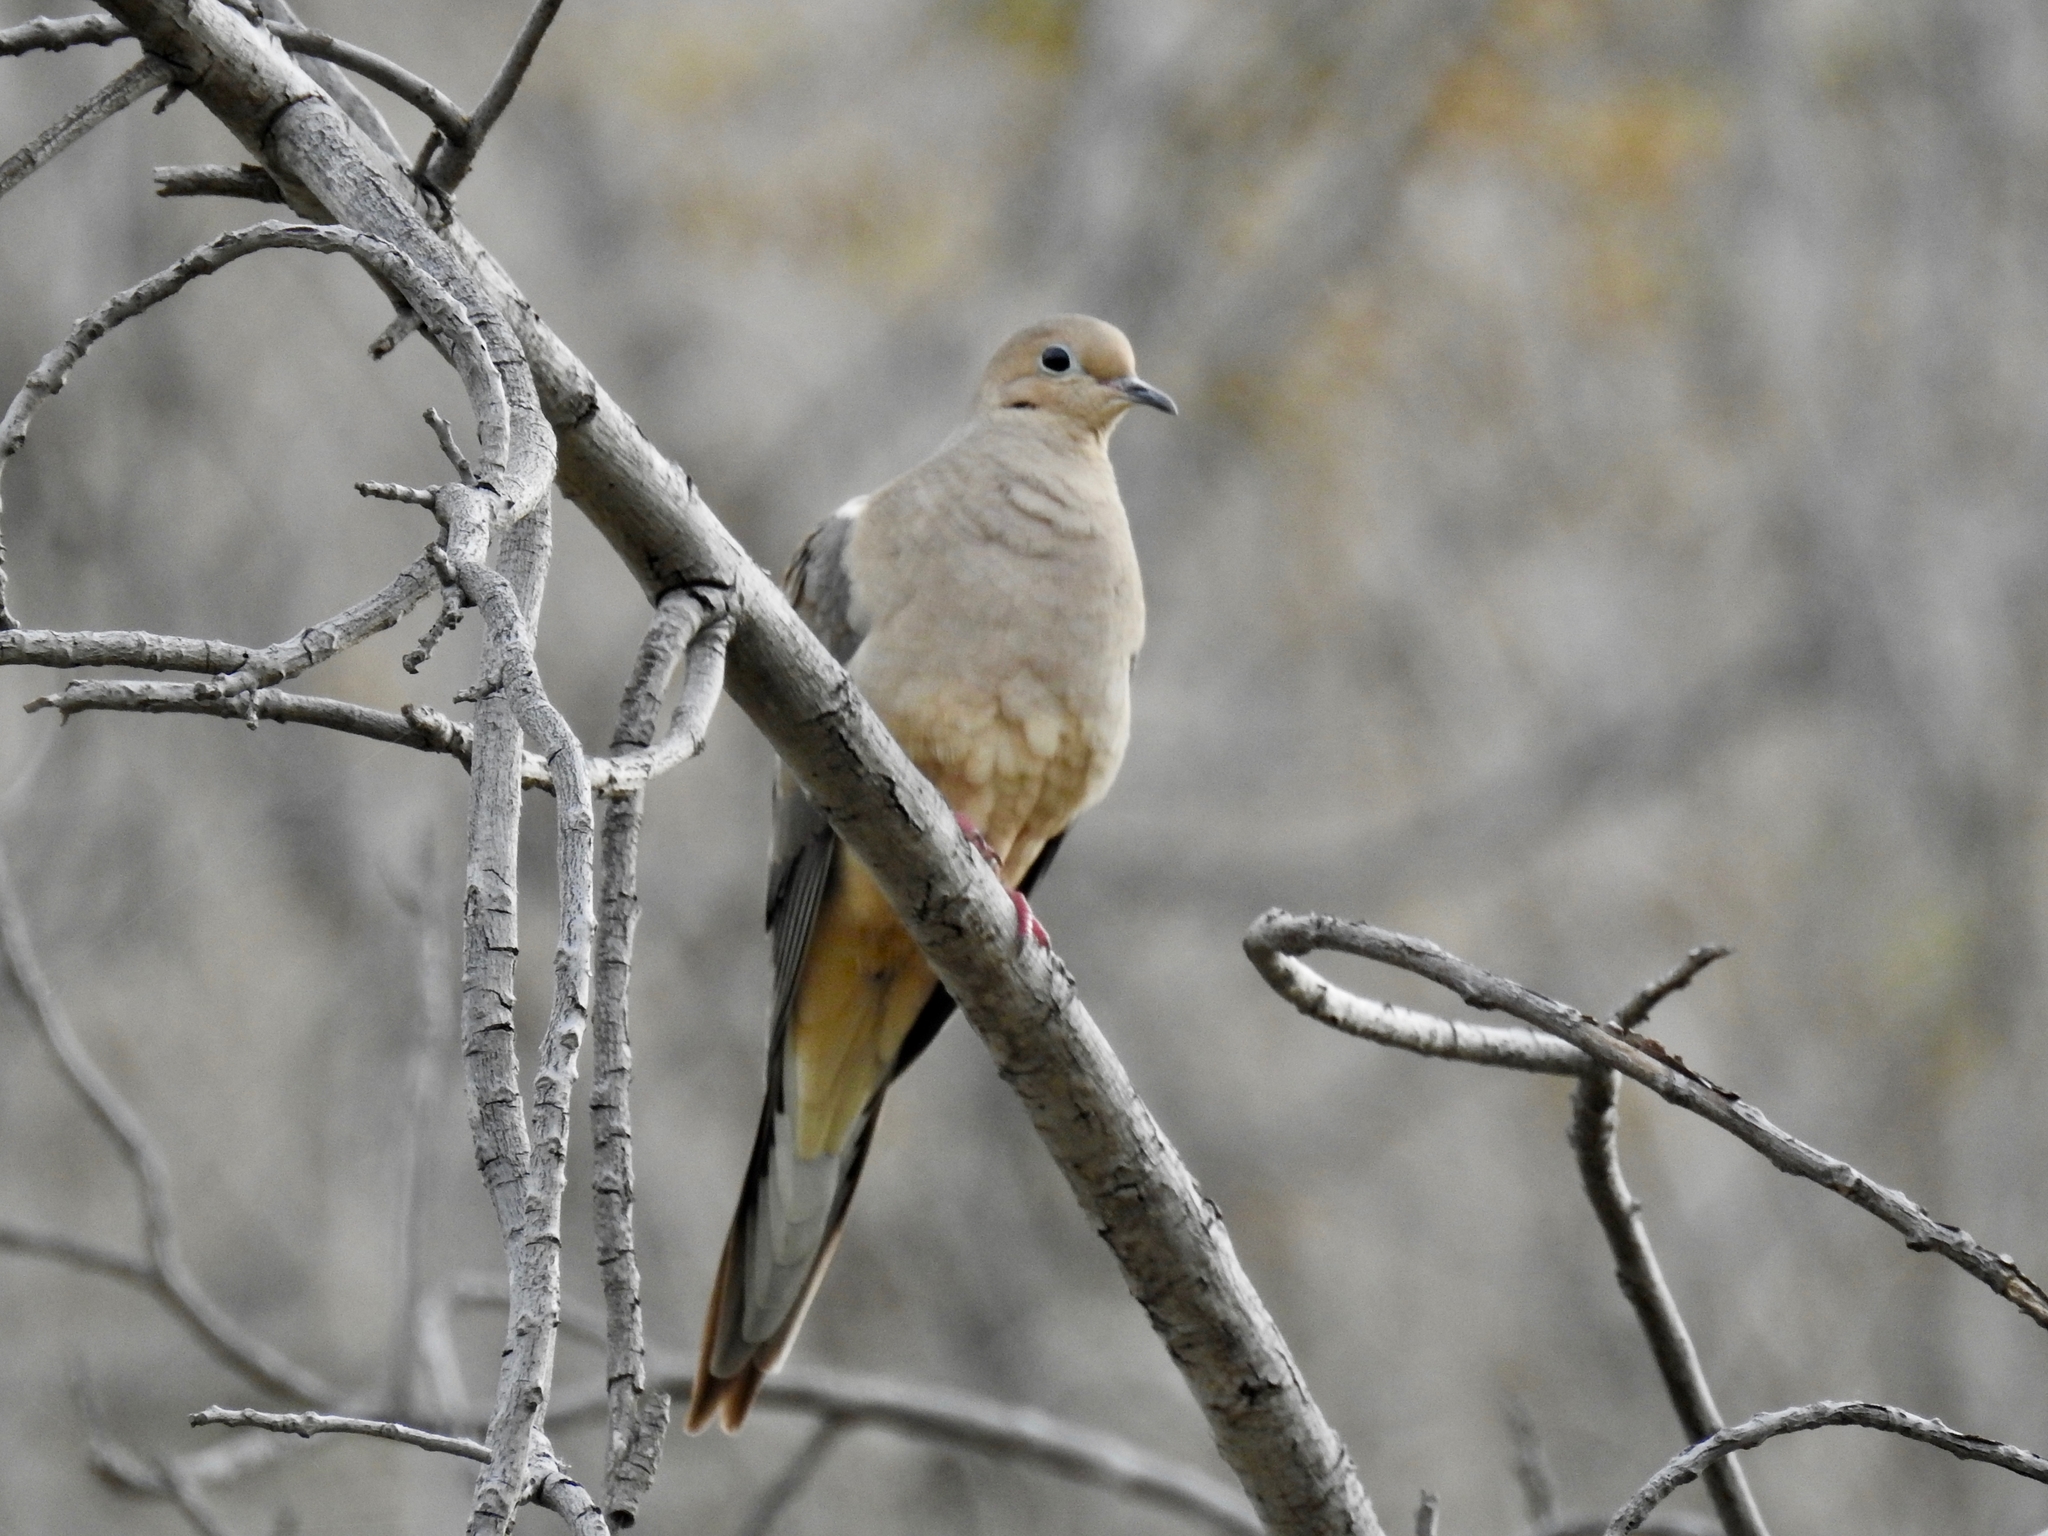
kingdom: Animalia
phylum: Chordata
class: Aves
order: Columbiformes
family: Columbidae
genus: Zenaida
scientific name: Zenaida macroura
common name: Mourning dove
